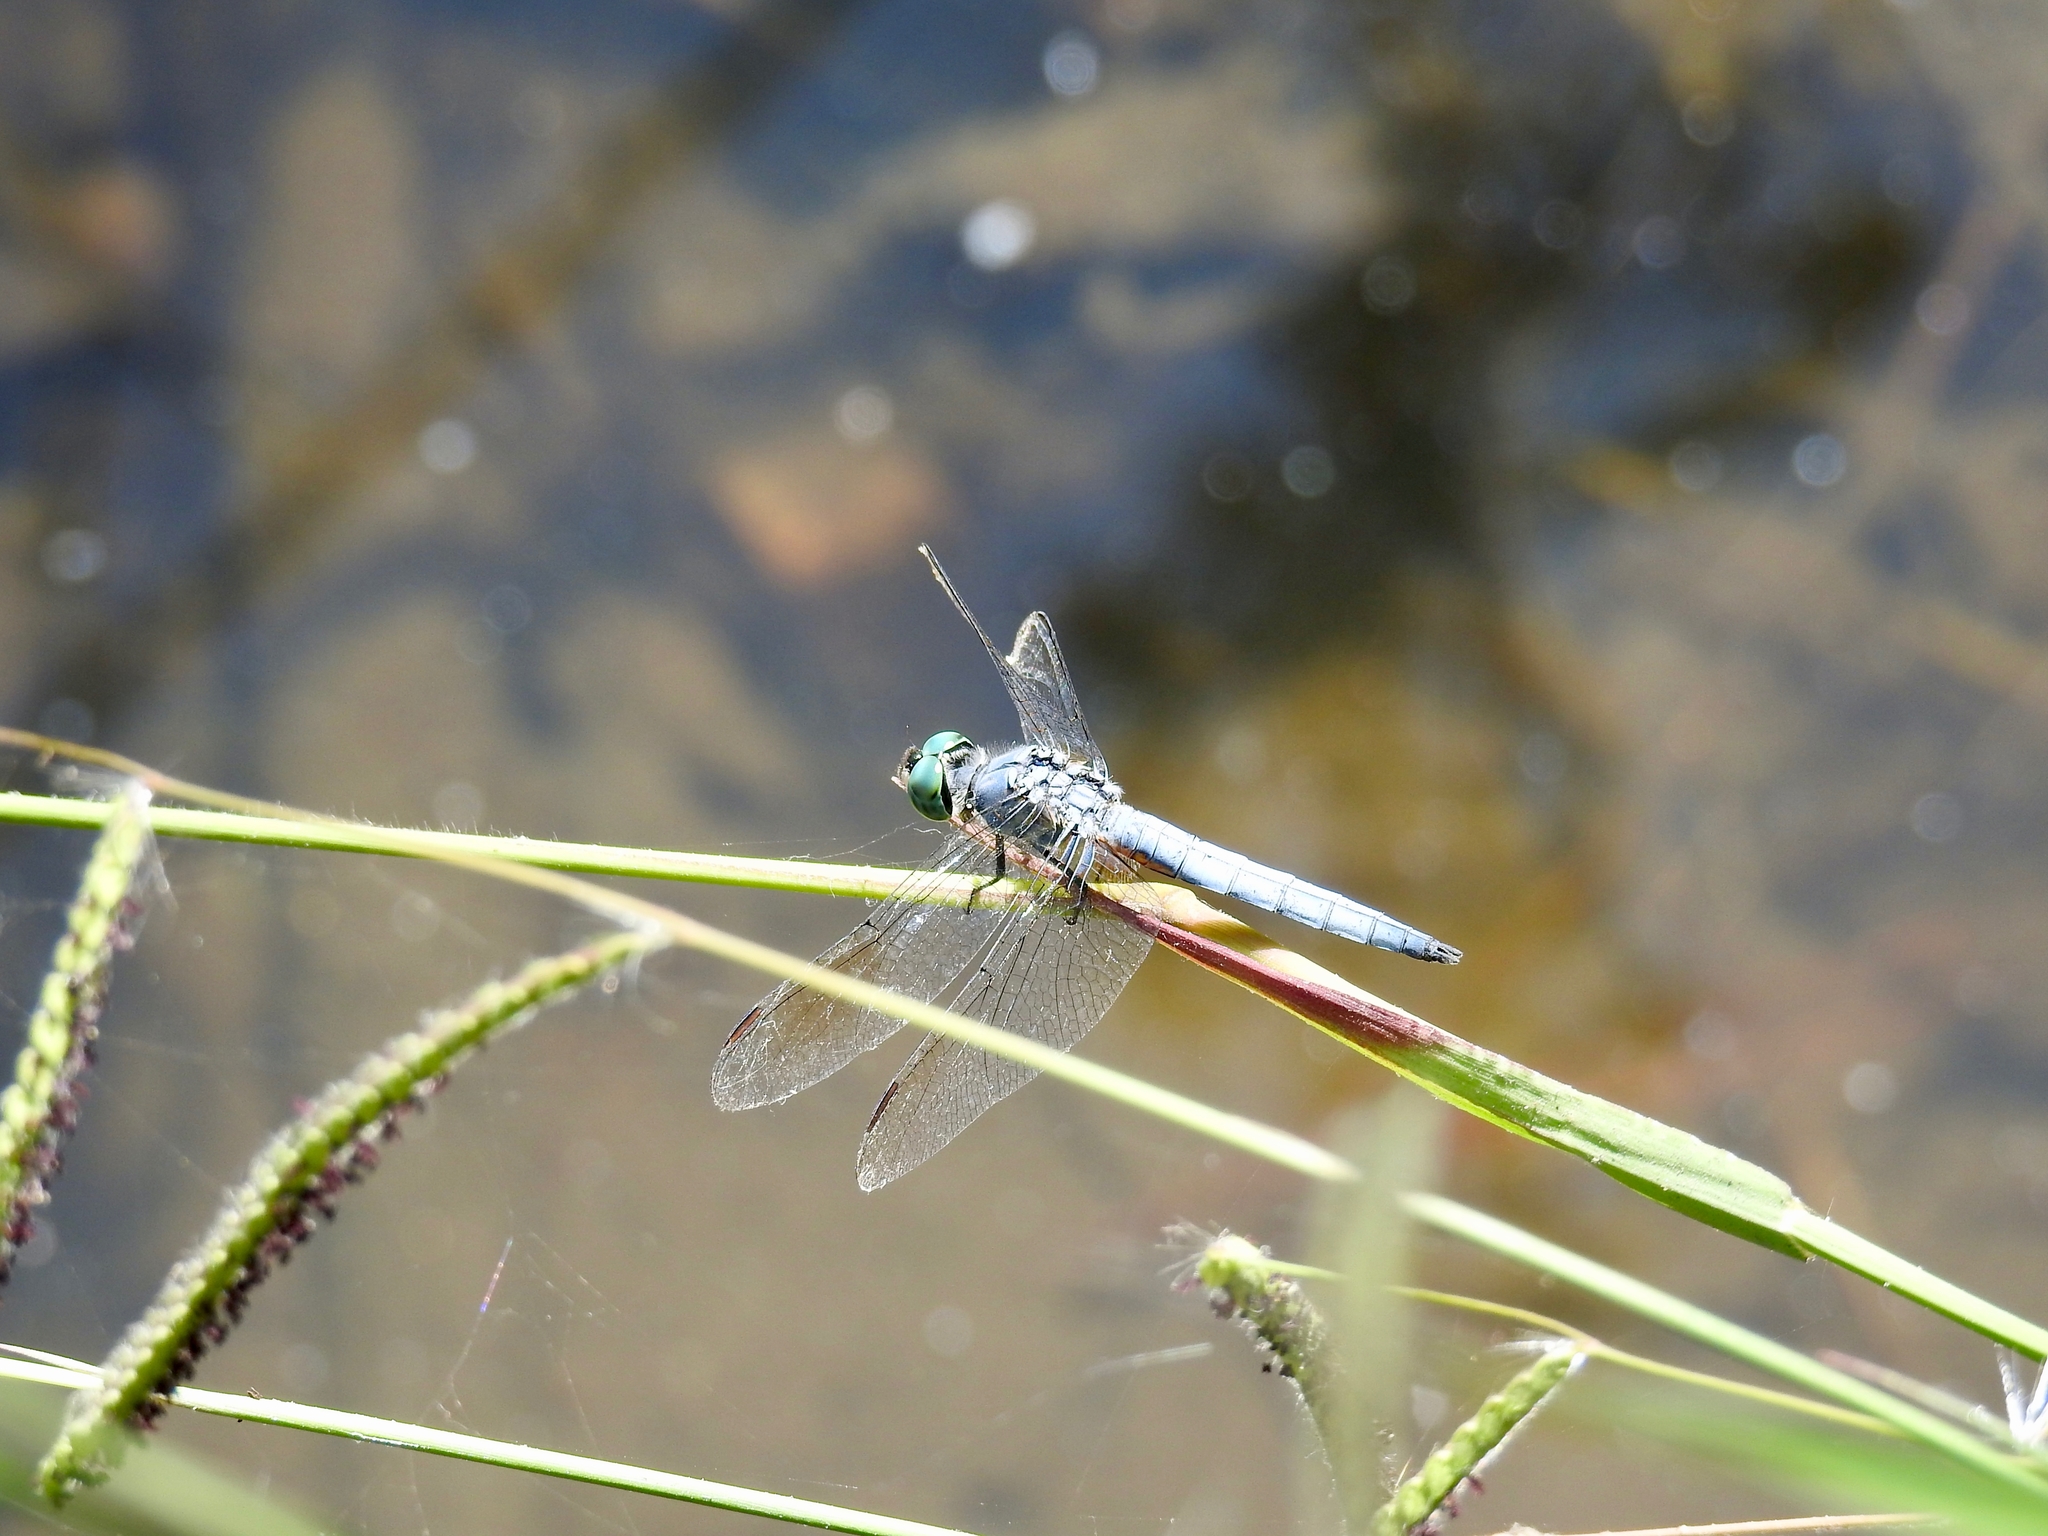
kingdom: Animalia
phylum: Arthropoda
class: Insecta
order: Odonata
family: Libellulidae
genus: Pachydiplax
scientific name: Pachydiplax longipennis
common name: Blue dasher
